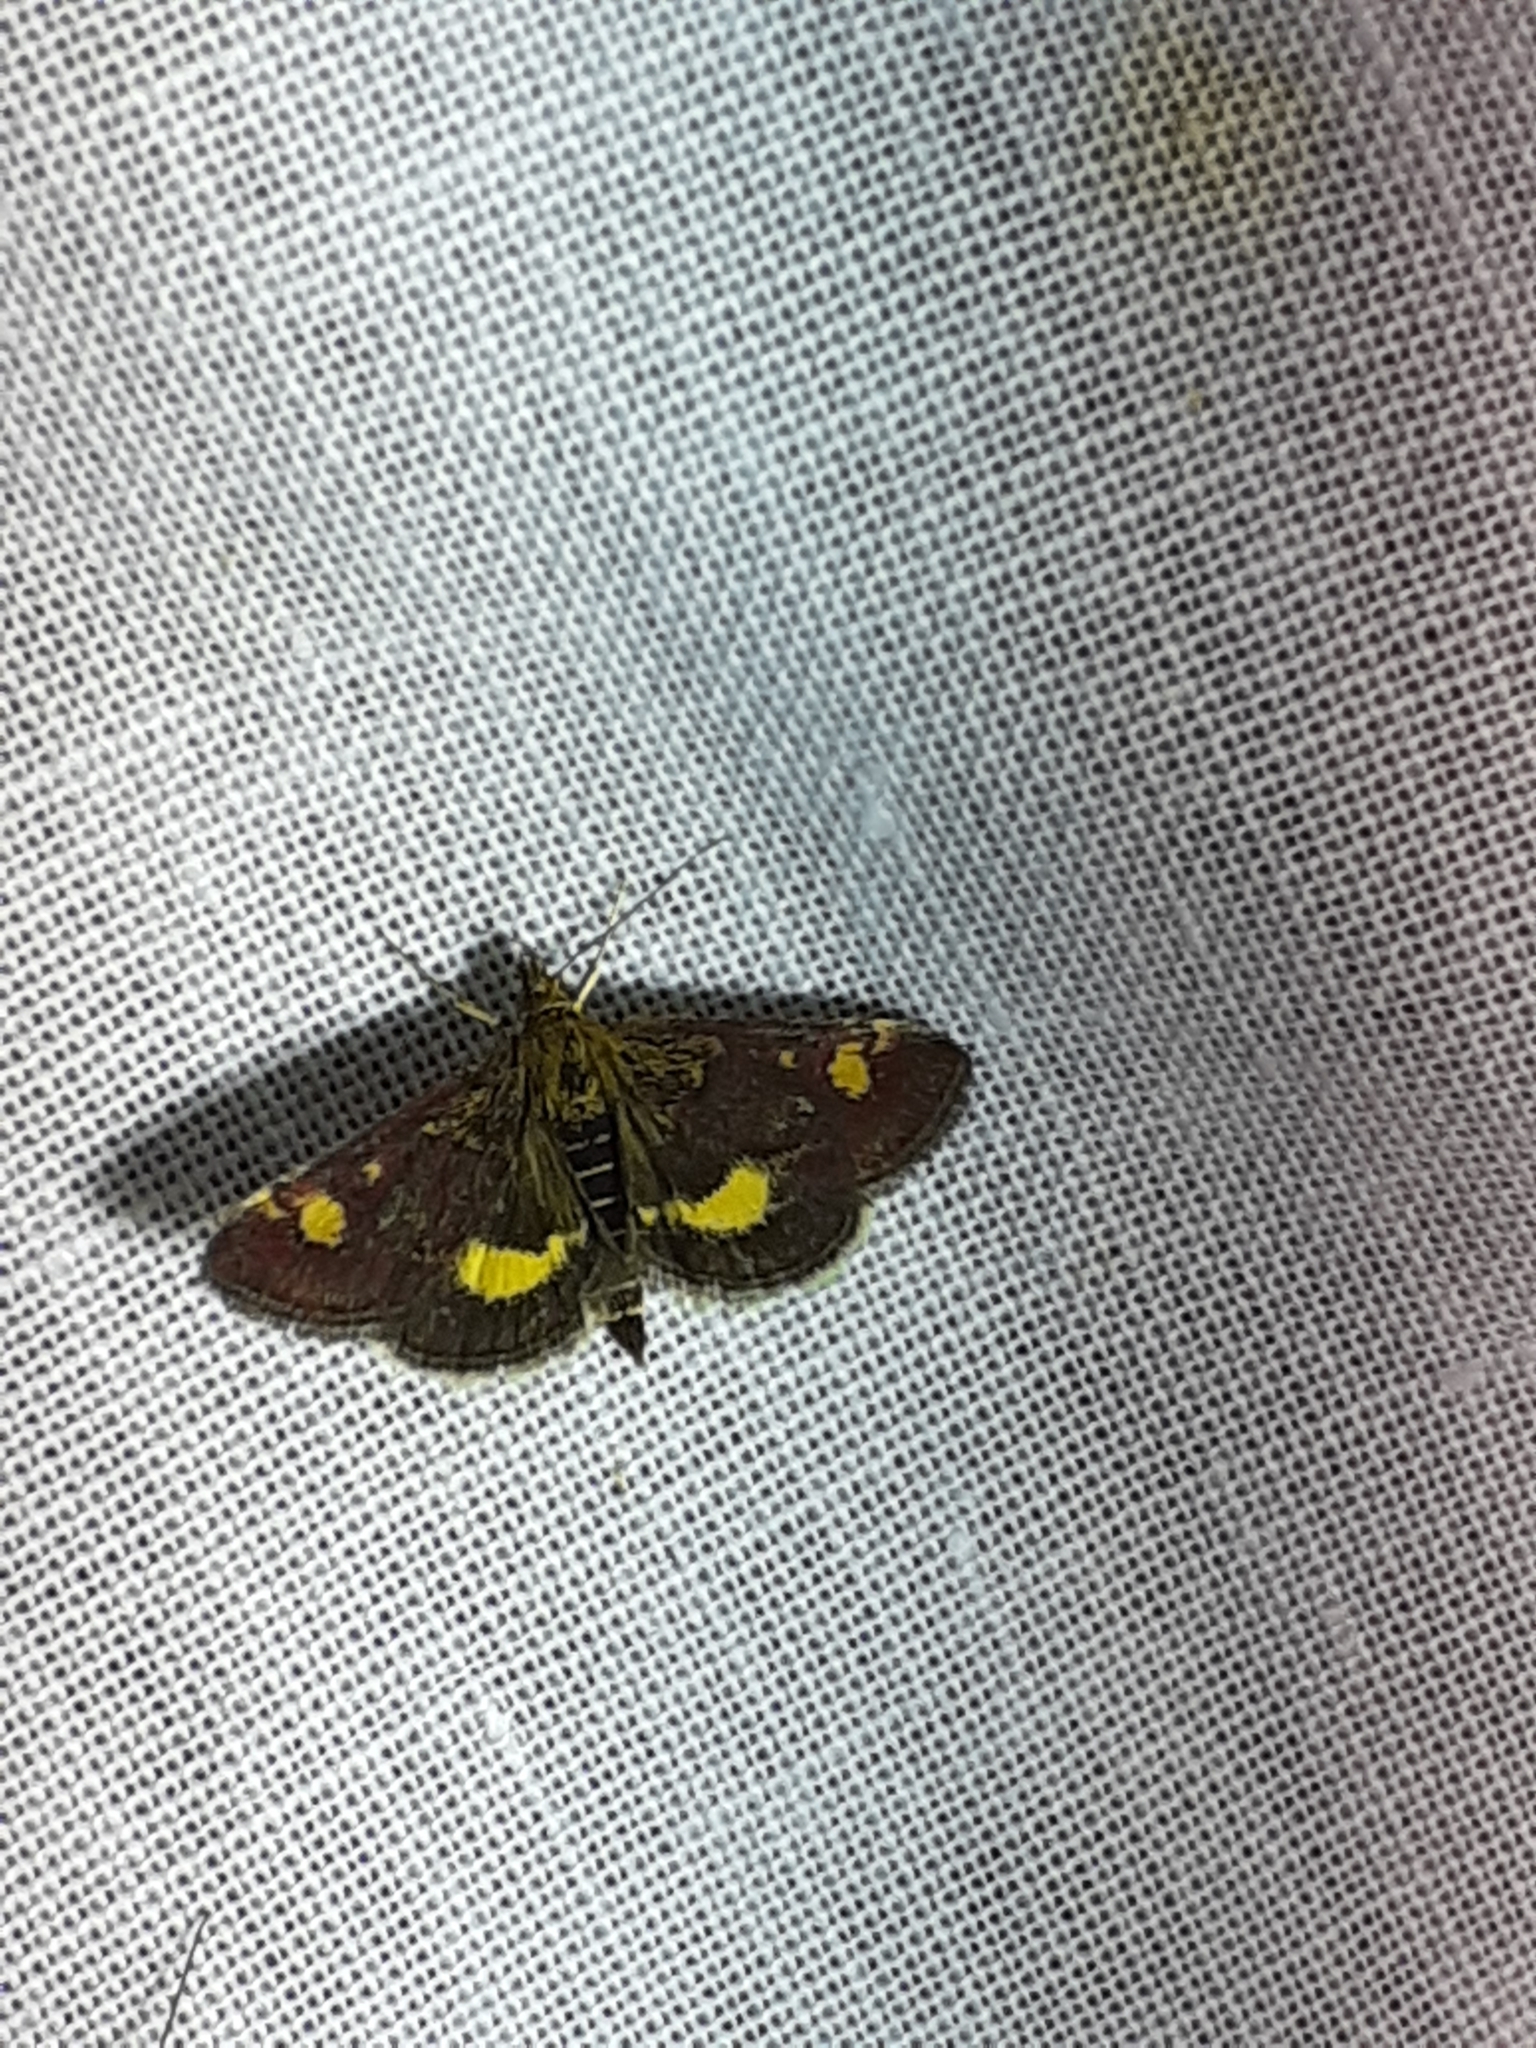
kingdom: Animalia
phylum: Arthropoda
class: Insecta
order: Lepidoptera
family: Crambidae
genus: Pyrausta
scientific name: Pyrausta aurata
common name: Small purple & gold
